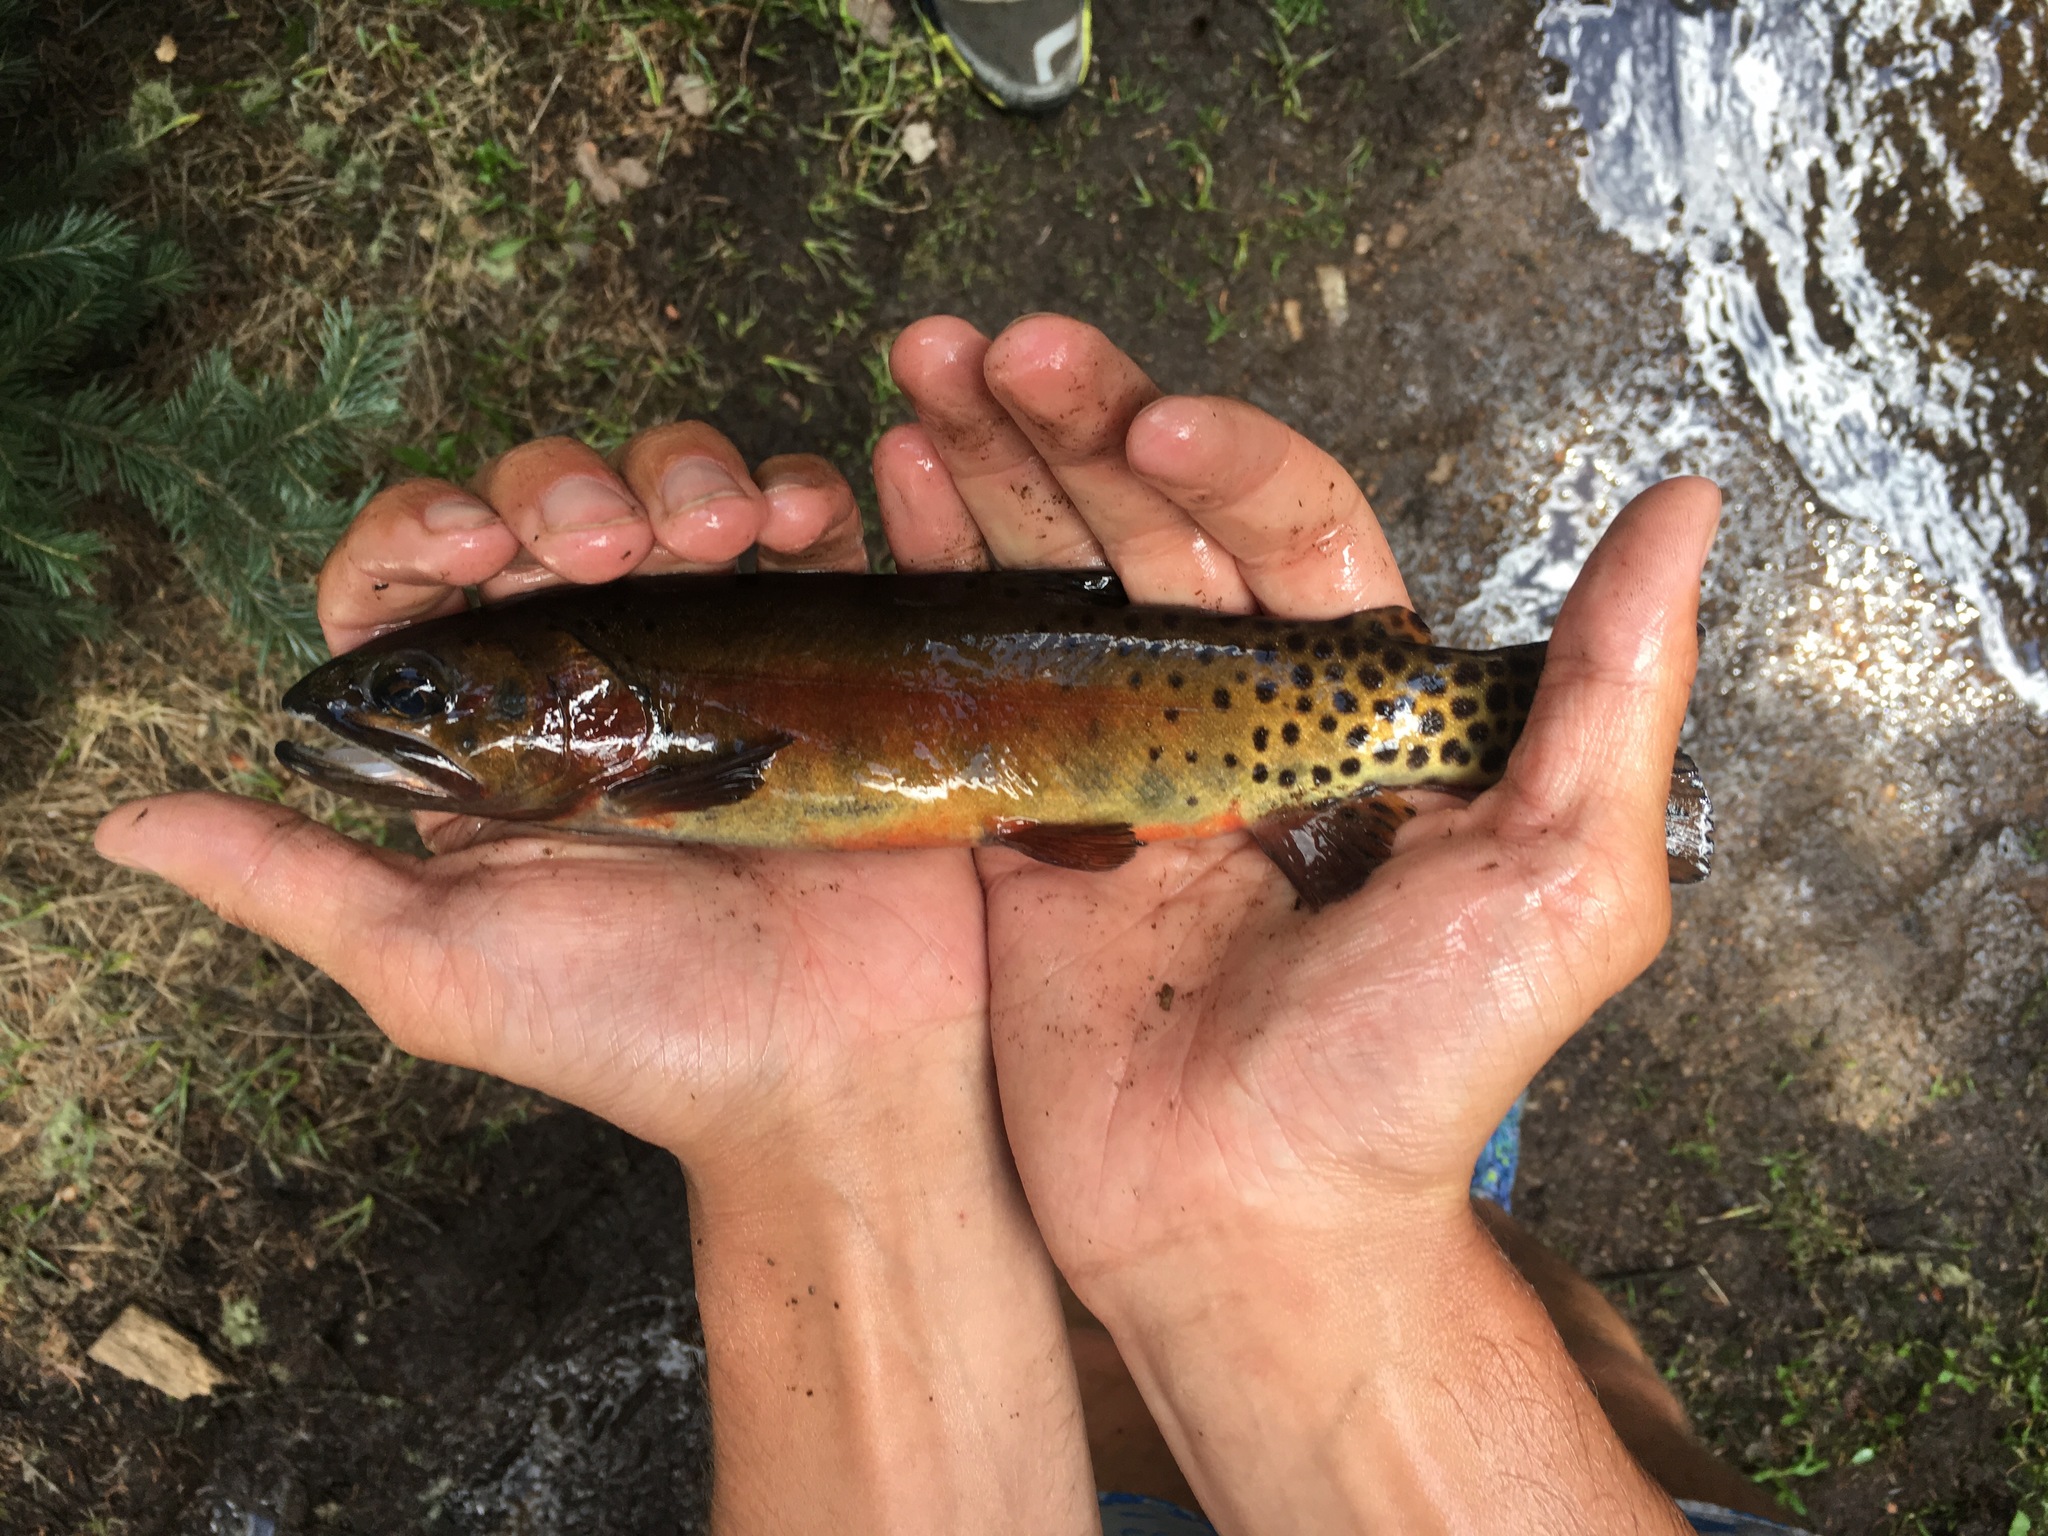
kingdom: Animalia
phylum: Chordata
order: Salmoniformes
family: Salmonidae
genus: Oncorhynchus
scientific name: Oncorhynchus virginalis
